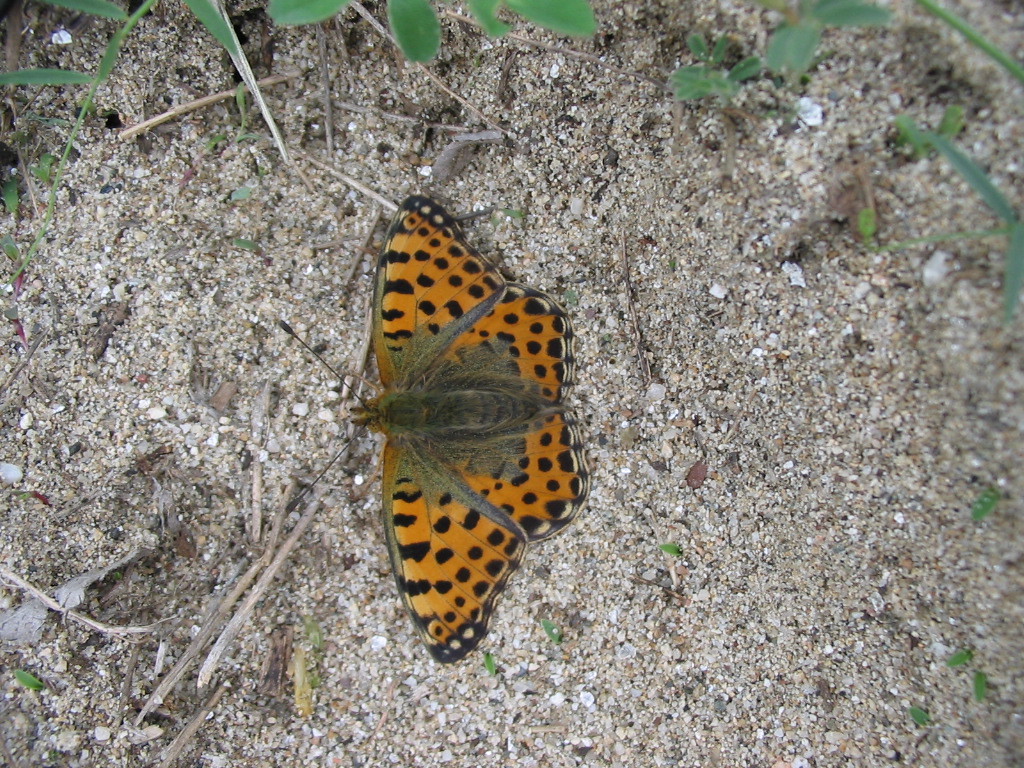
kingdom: Animalia
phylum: Arthropoda
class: Insecta
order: Lepidoptera
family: Nymphalidae
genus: Issoria
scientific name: Issoria lathonia
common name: Queen of spain fritillary
